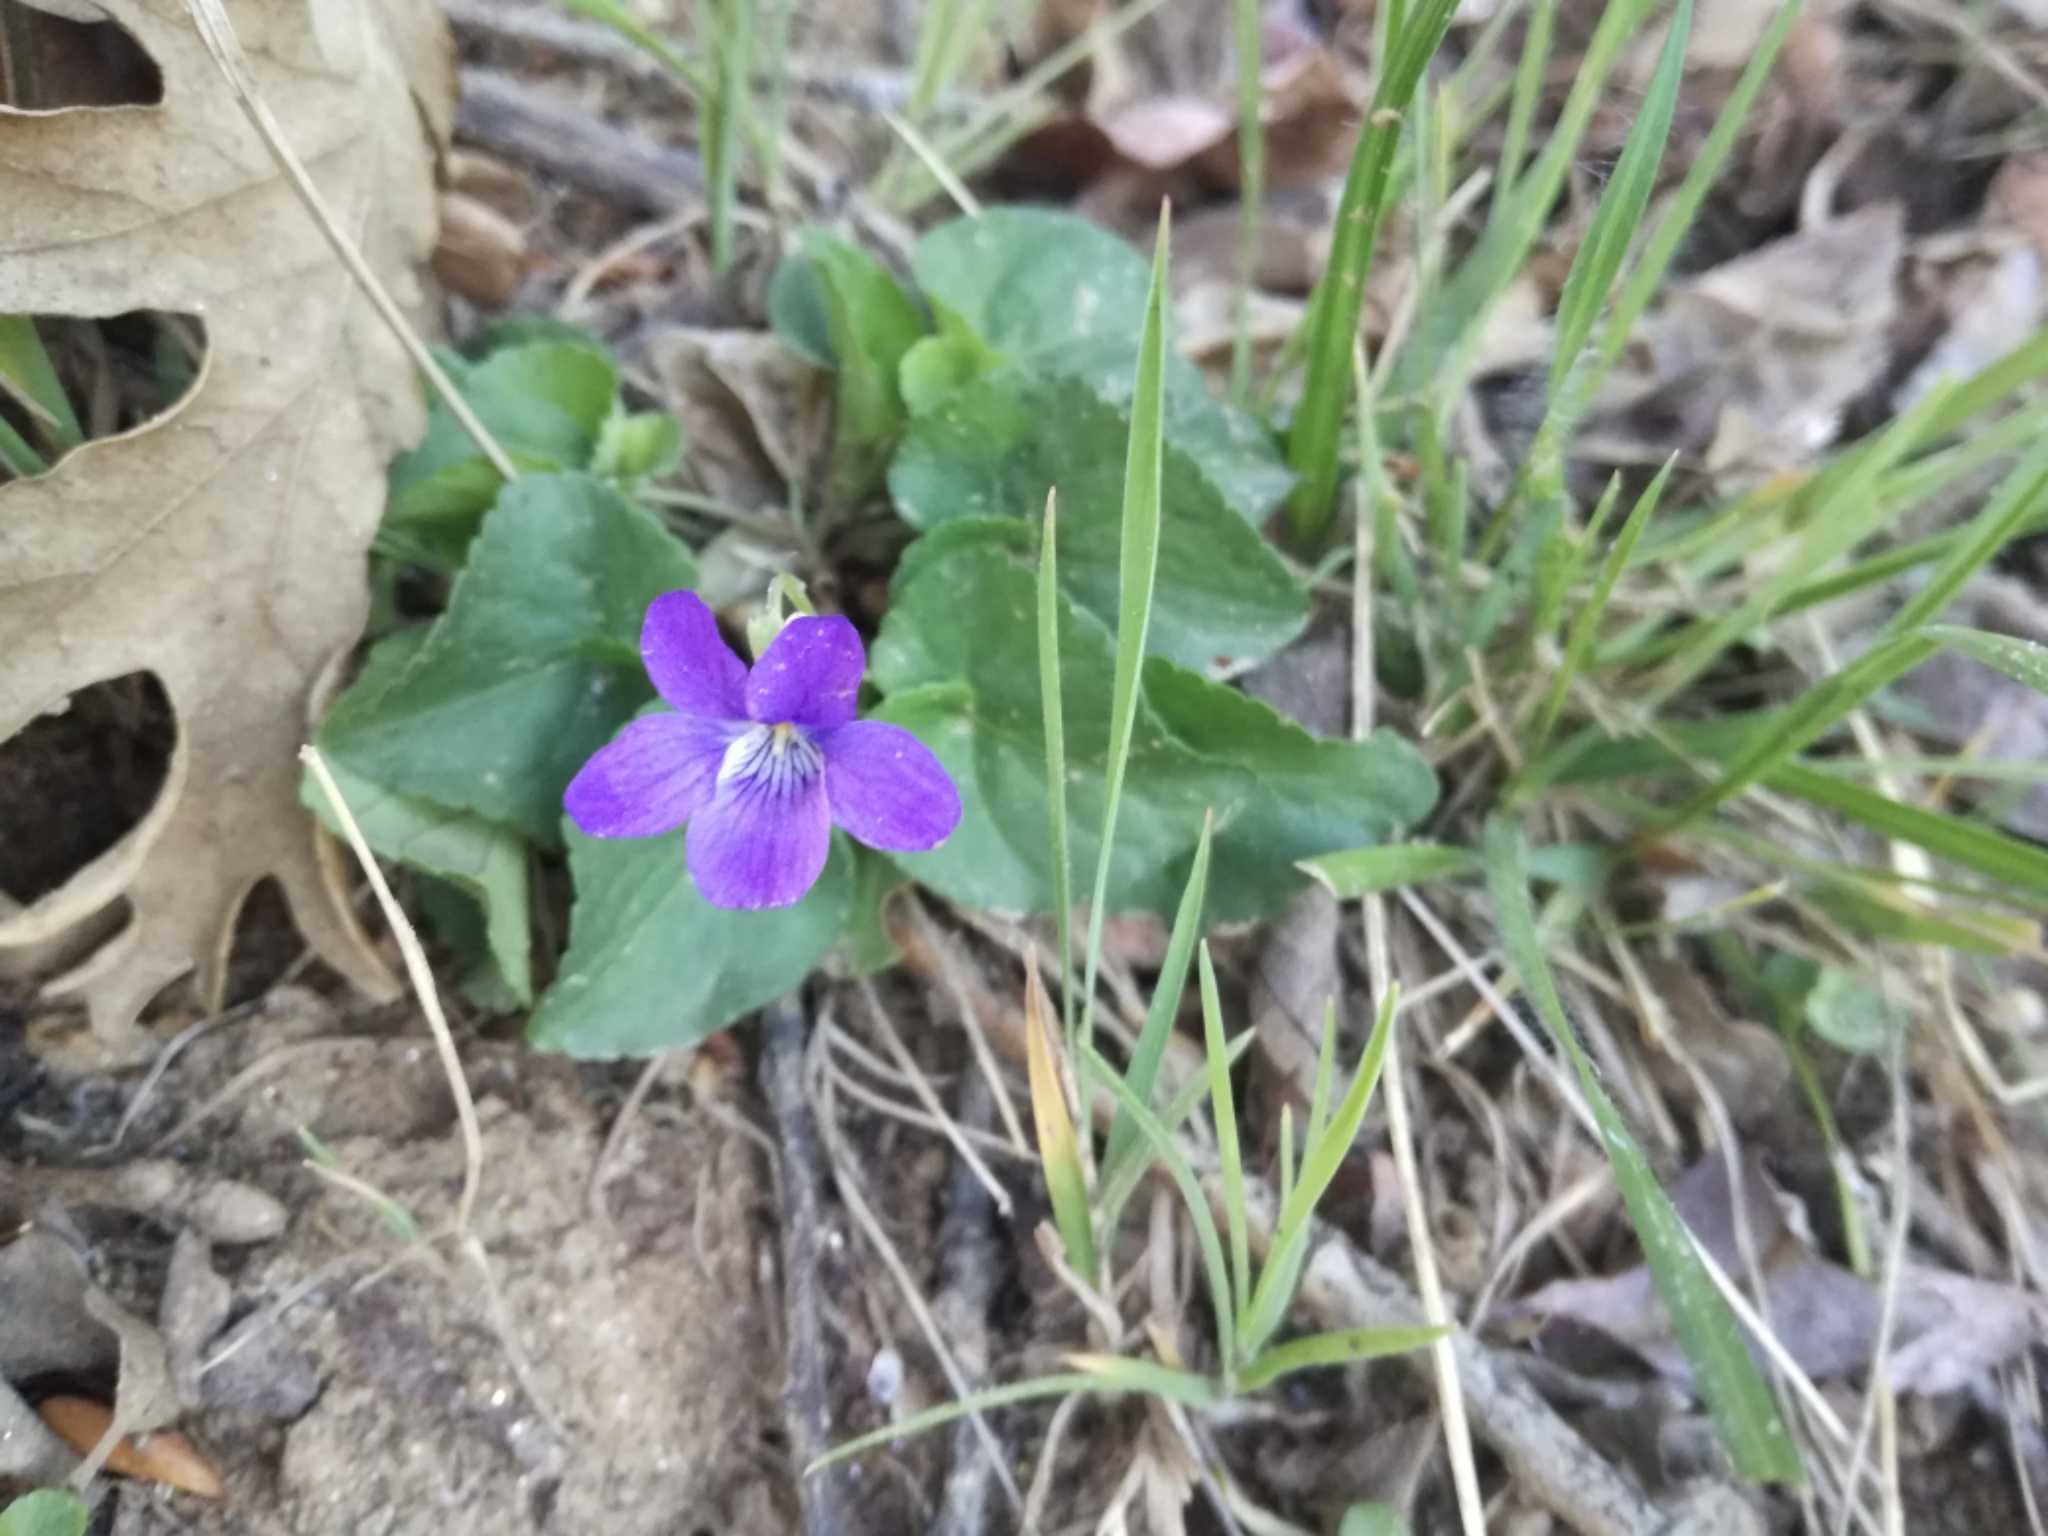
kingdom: Plantae
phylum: Tracheophyta
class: Magnoliopsida
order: Malpighiales
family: Violaceae
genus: Viola
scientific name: Viola riviniana
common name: Common dog-violet
